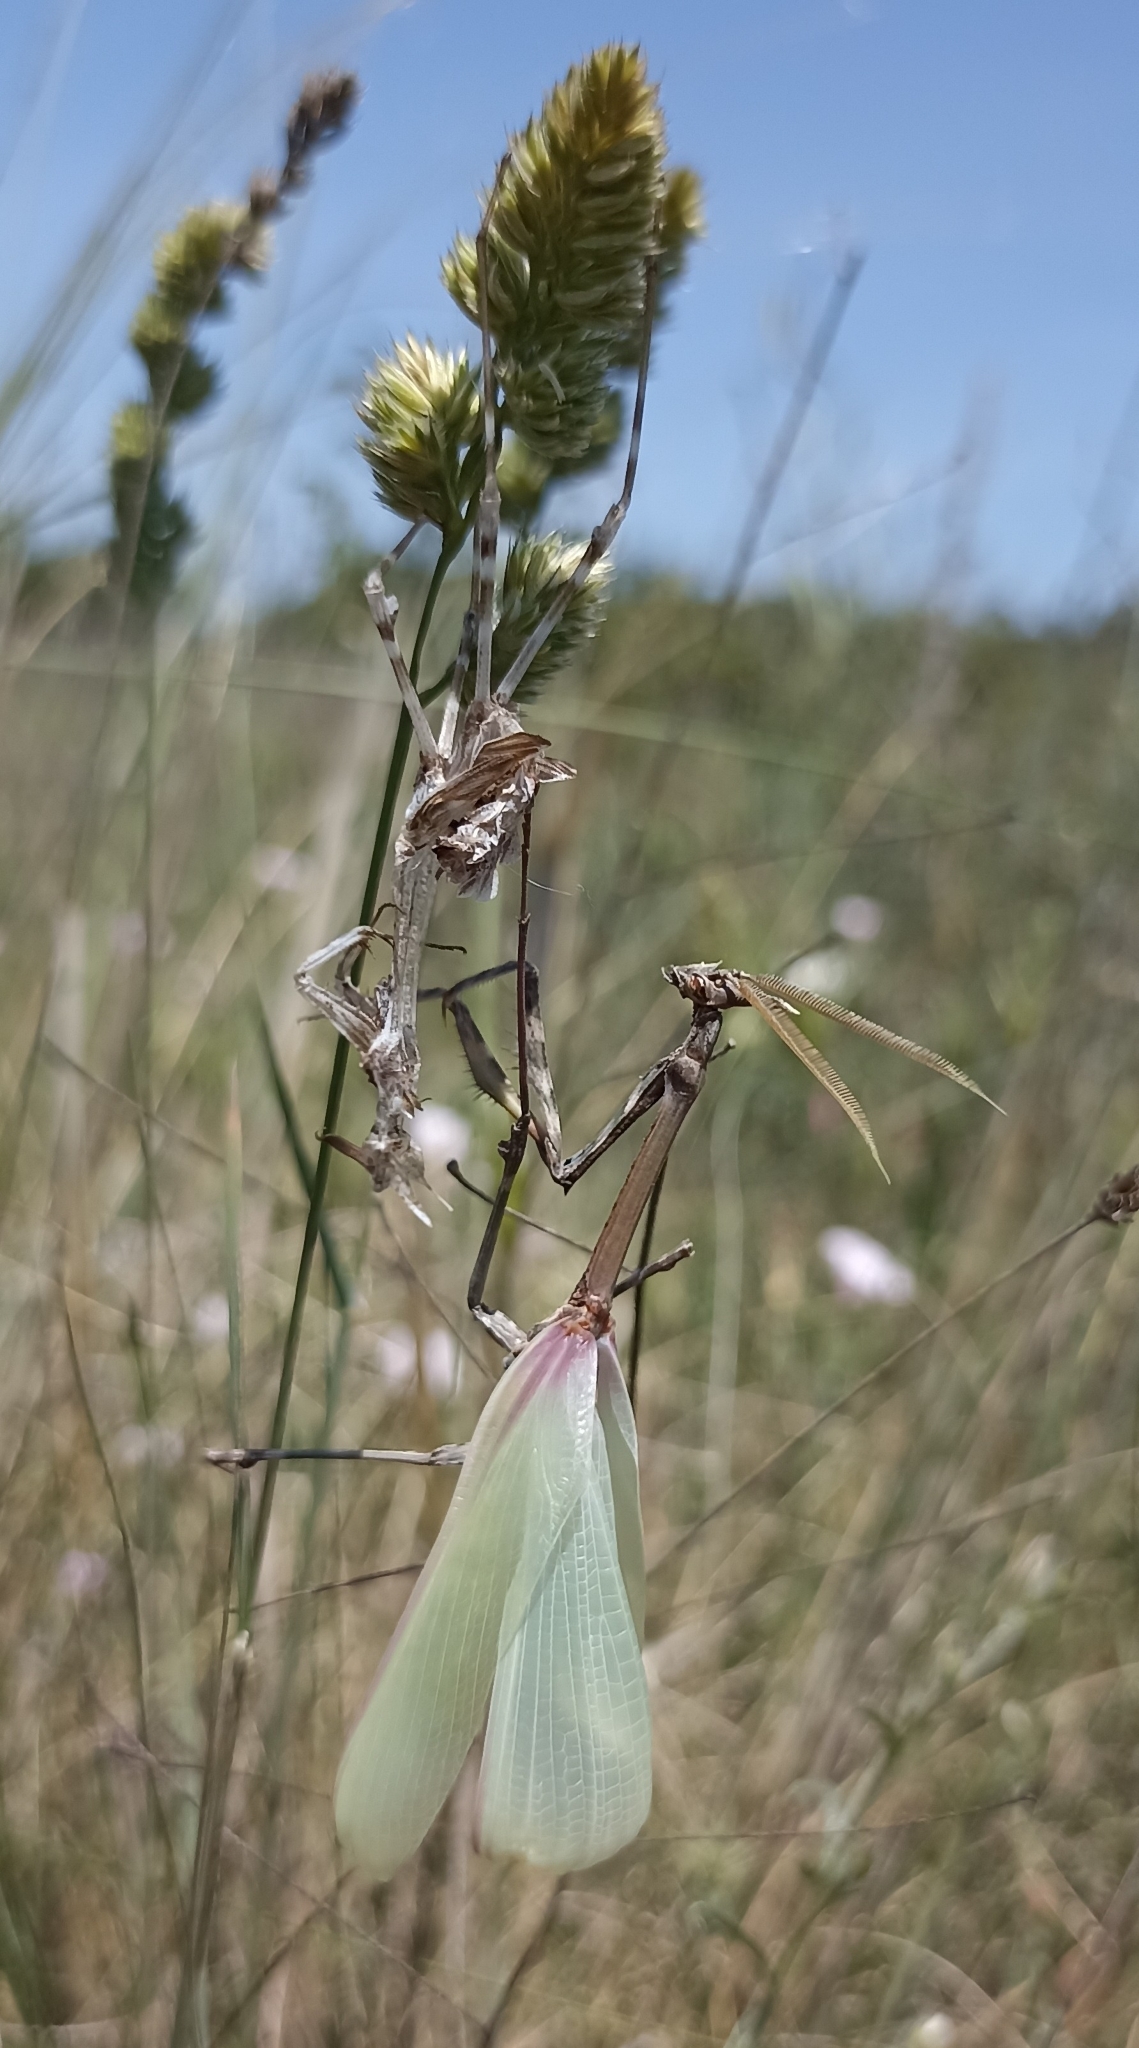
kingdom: Animalia
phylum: Arthropoda
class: Insecta
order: Mantodea
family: Empusidae
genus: Empusa
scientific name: Empusa pennata
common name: Conehead mantis
